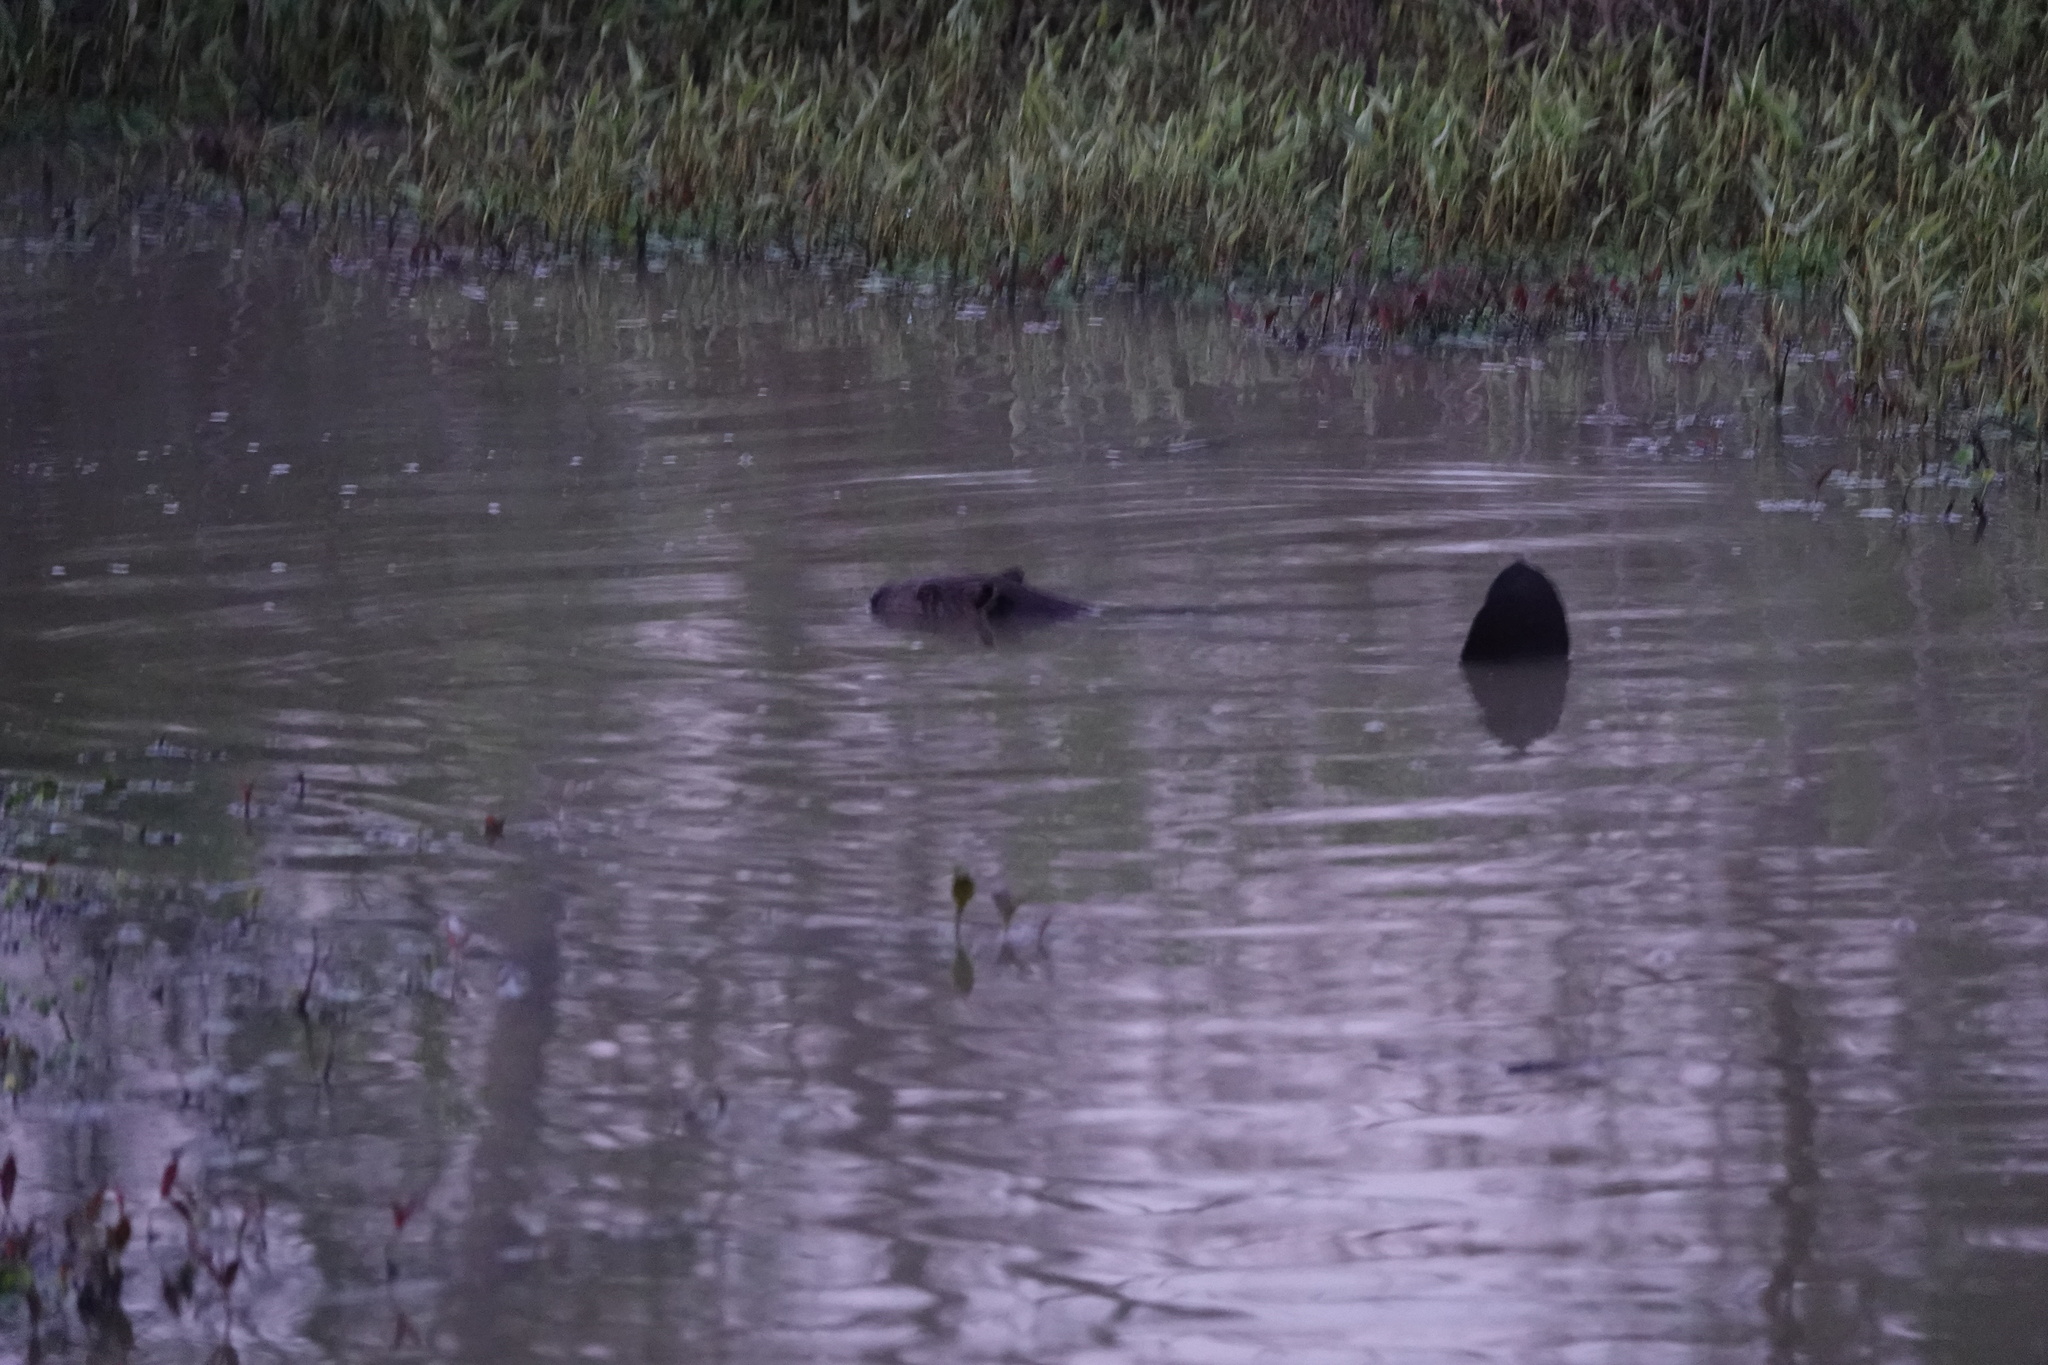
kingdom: Animalia
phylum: Chordata
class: Mammalia
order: Rodentia
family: Castoridae
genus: Castor
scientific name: Castor canadensis
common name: American beaver
